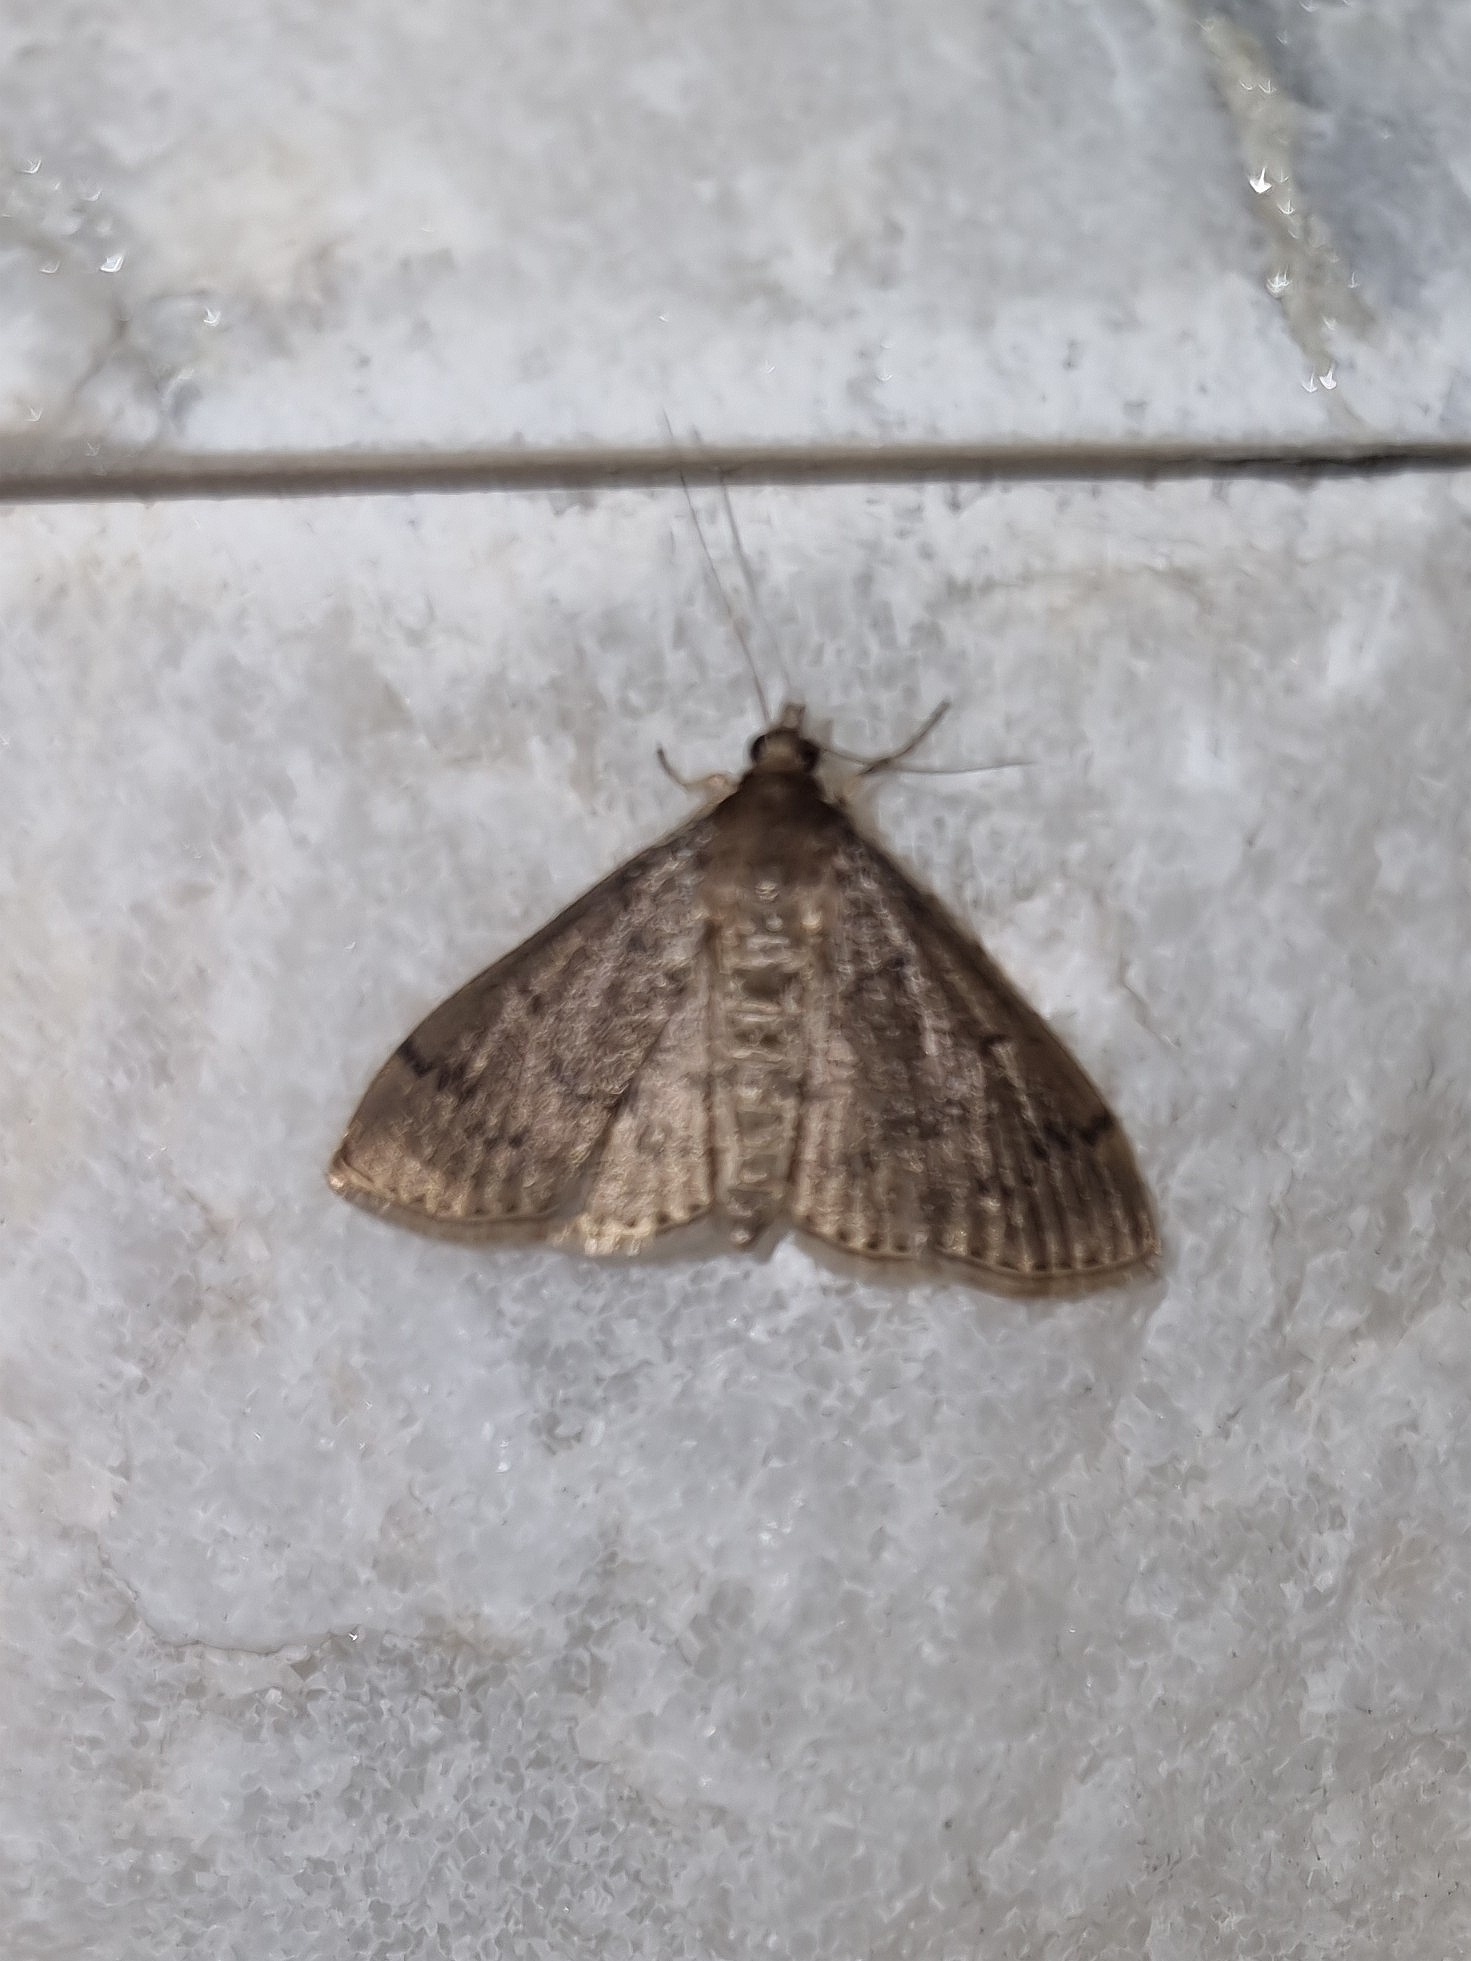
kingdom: Animalia
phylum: Arthropoda
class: Insecta
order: Lepidoptera
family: Crambidae
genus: Herpetogramma
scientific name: Herpetogramma licarsisalis
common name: Grass webworm
